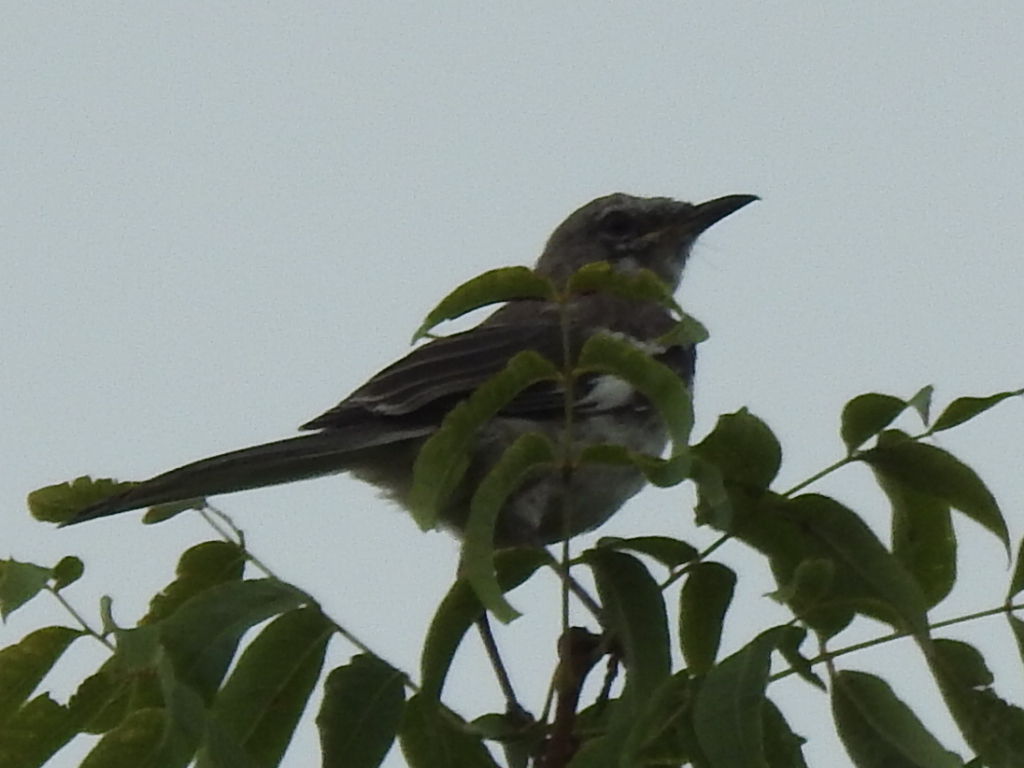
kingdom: Animalia
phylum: Chordata
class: Aves
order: Passeriformes
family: Mimidae
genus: Mimus
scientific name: Mimus polyglottos
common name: Northern mockingbird
